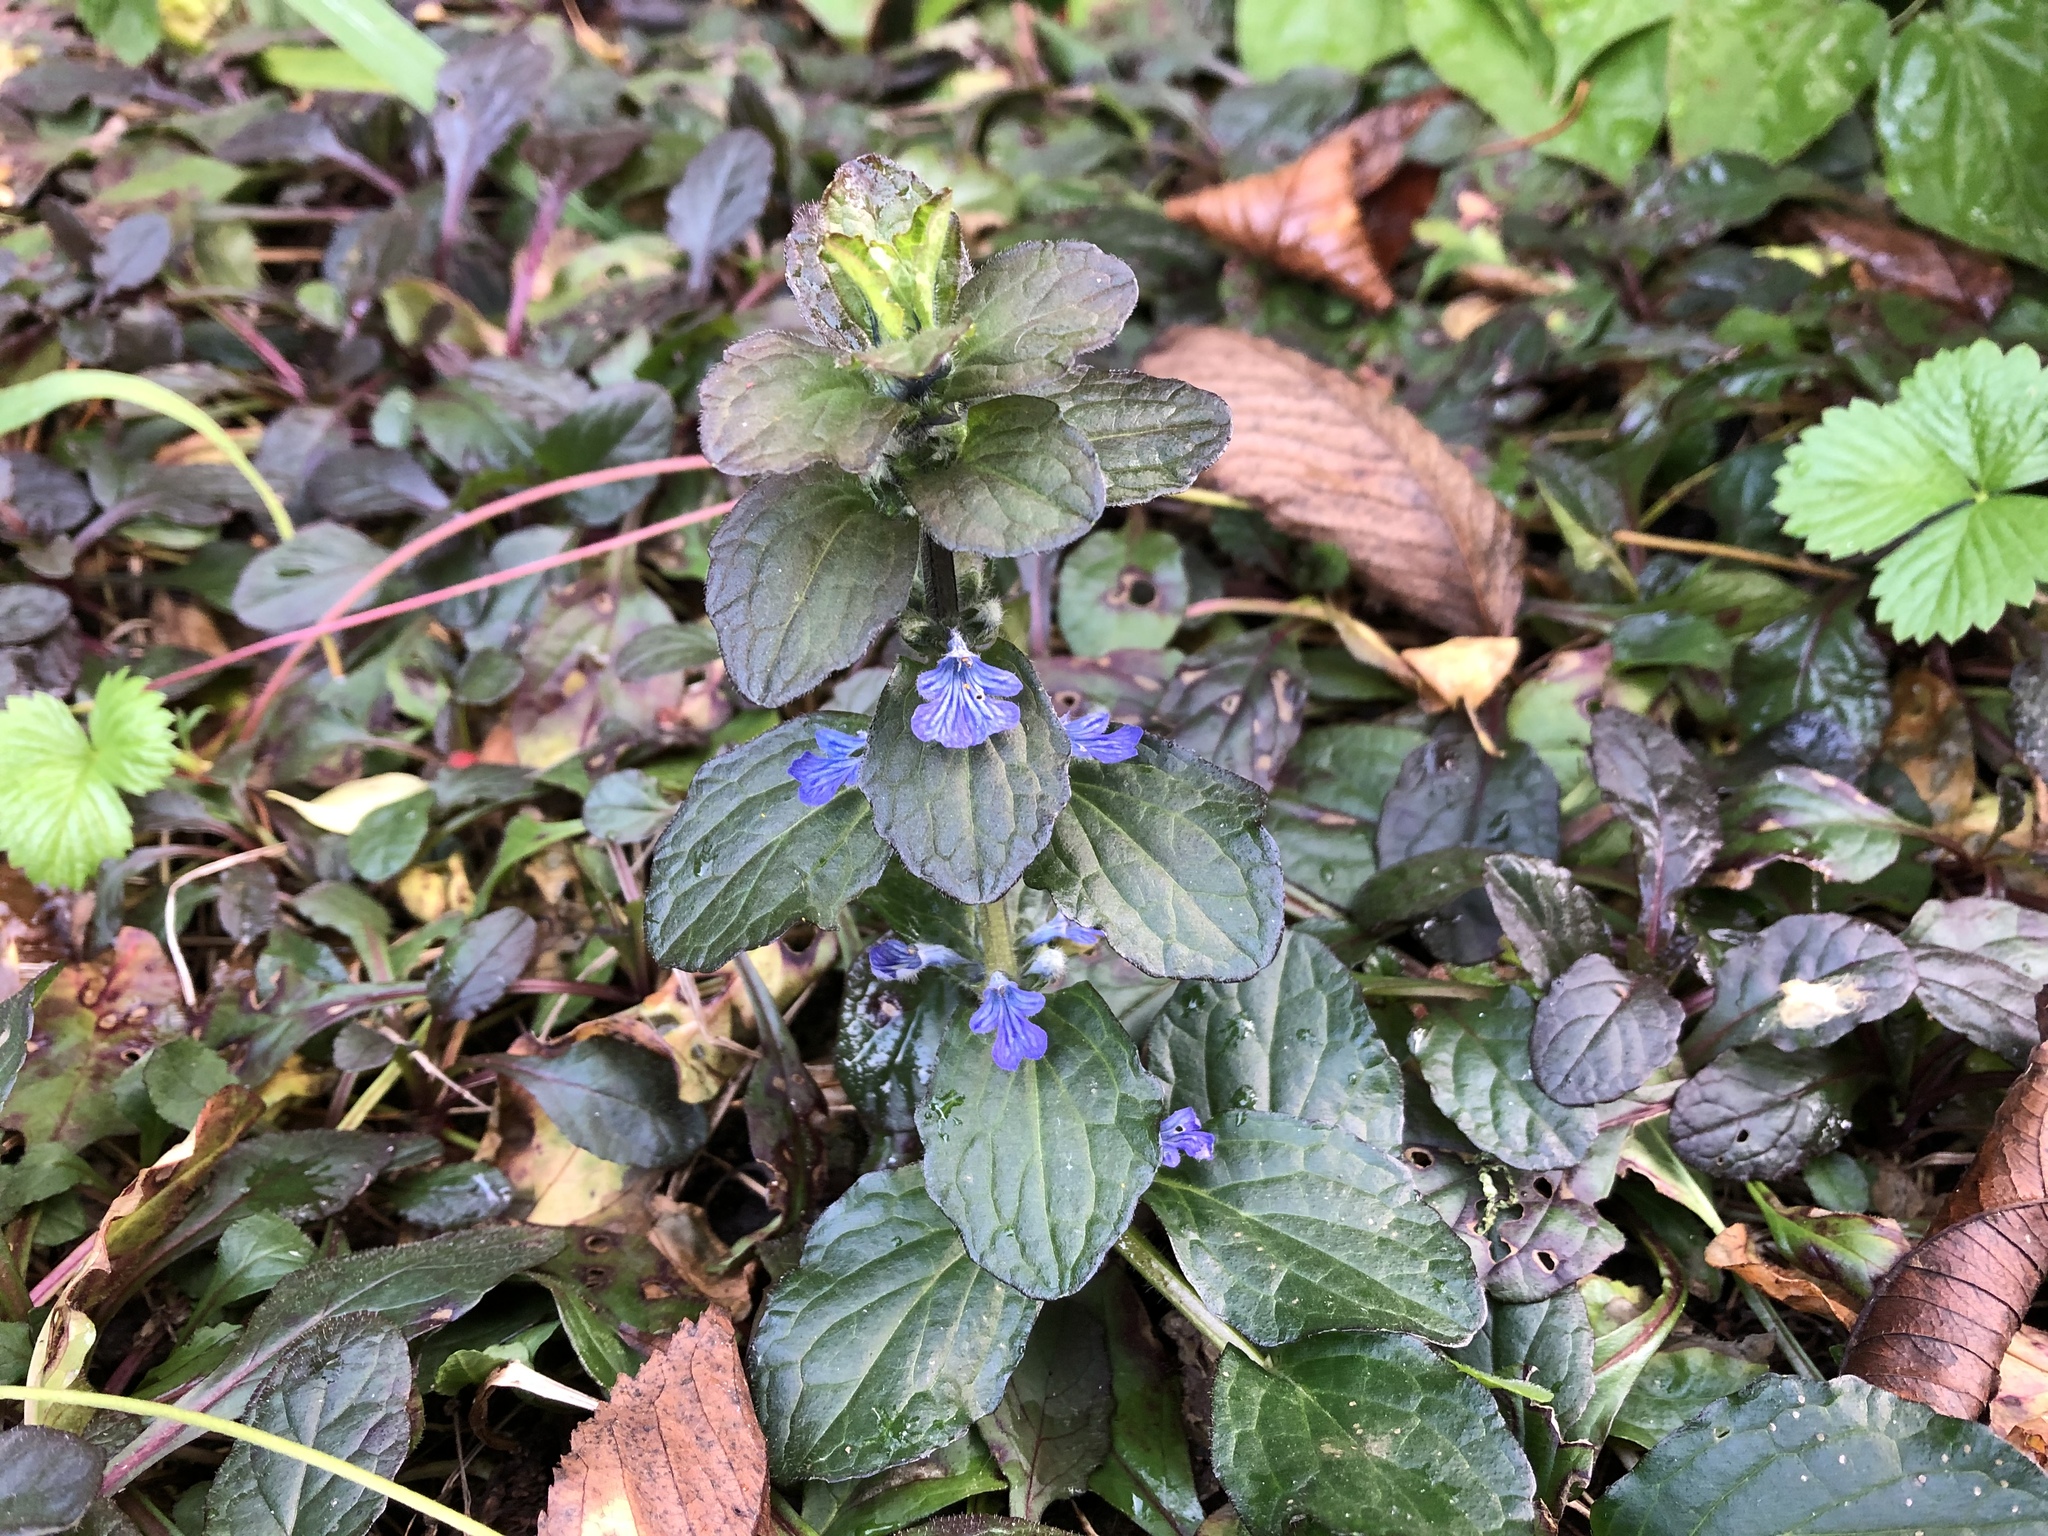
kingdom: Plantae
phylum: Tracheophyta
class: Magnoliopsida
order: Lamiales
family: Lamiaceae
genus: Ajuga
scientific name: Ajuga reptans
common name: Bugle
